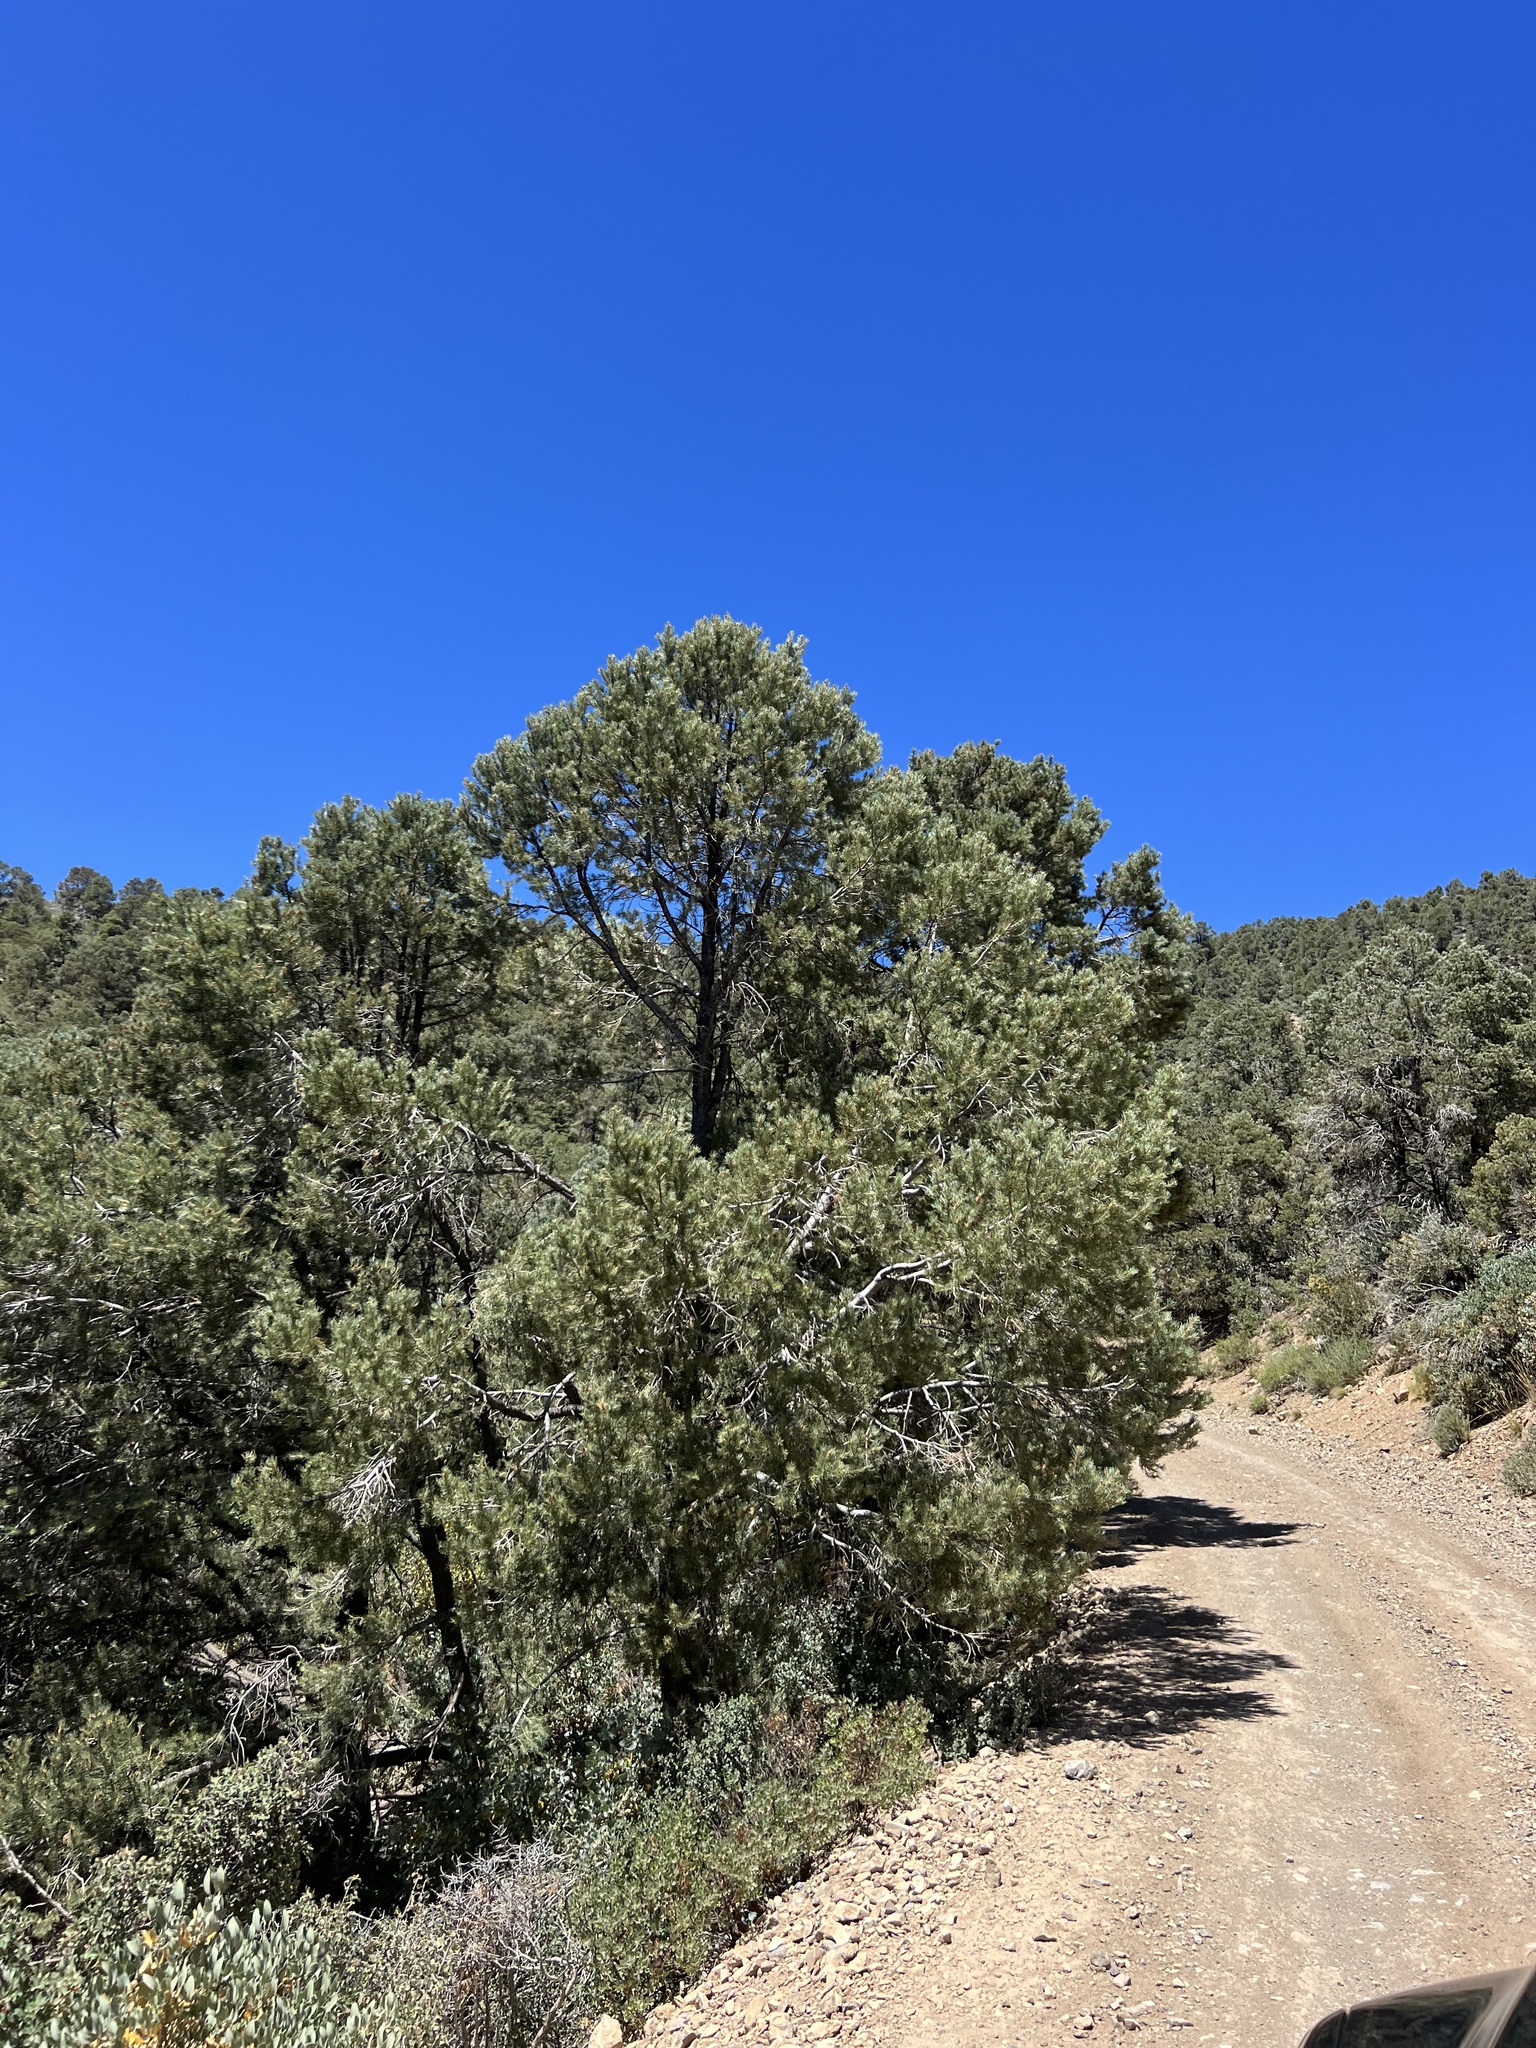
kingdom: Plantae
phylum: Tracheophyta
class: Pinopsida
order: Pinales
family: Pinaceae
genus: Pinus
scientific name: Pinus monophylla
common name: One-leaved nut pine
